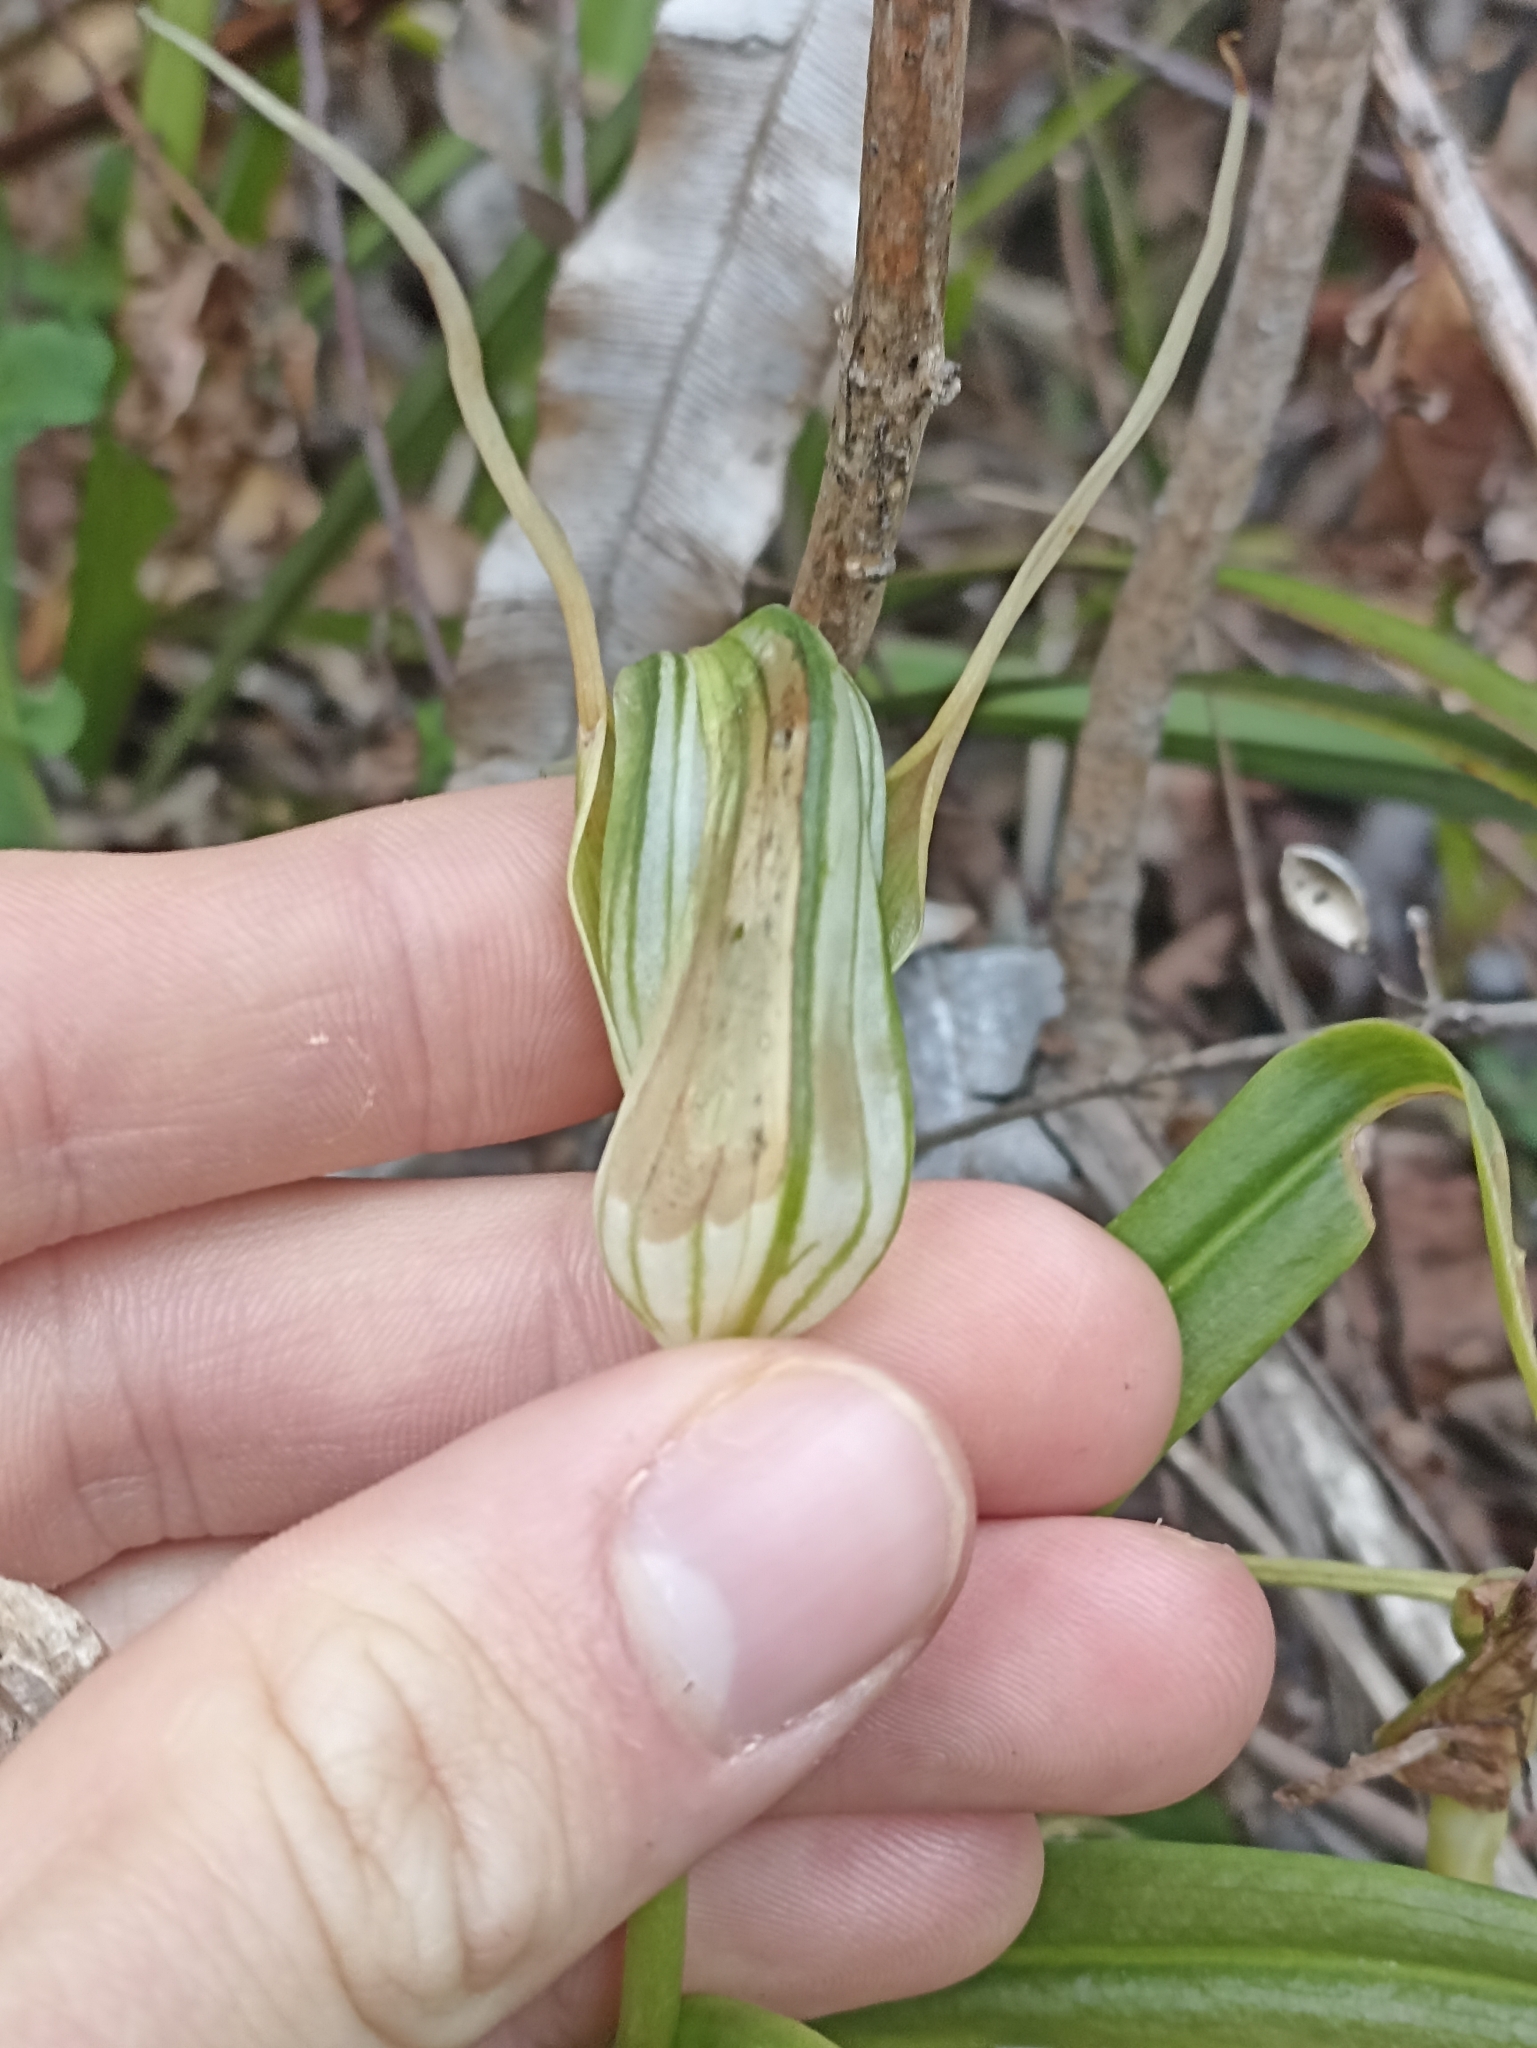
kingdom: Plantae
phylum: Tracheophyta
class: Liliopsida
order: Asparagales
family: Orchidaceae
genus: Pterostylis
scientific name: Pterostylis banksii
